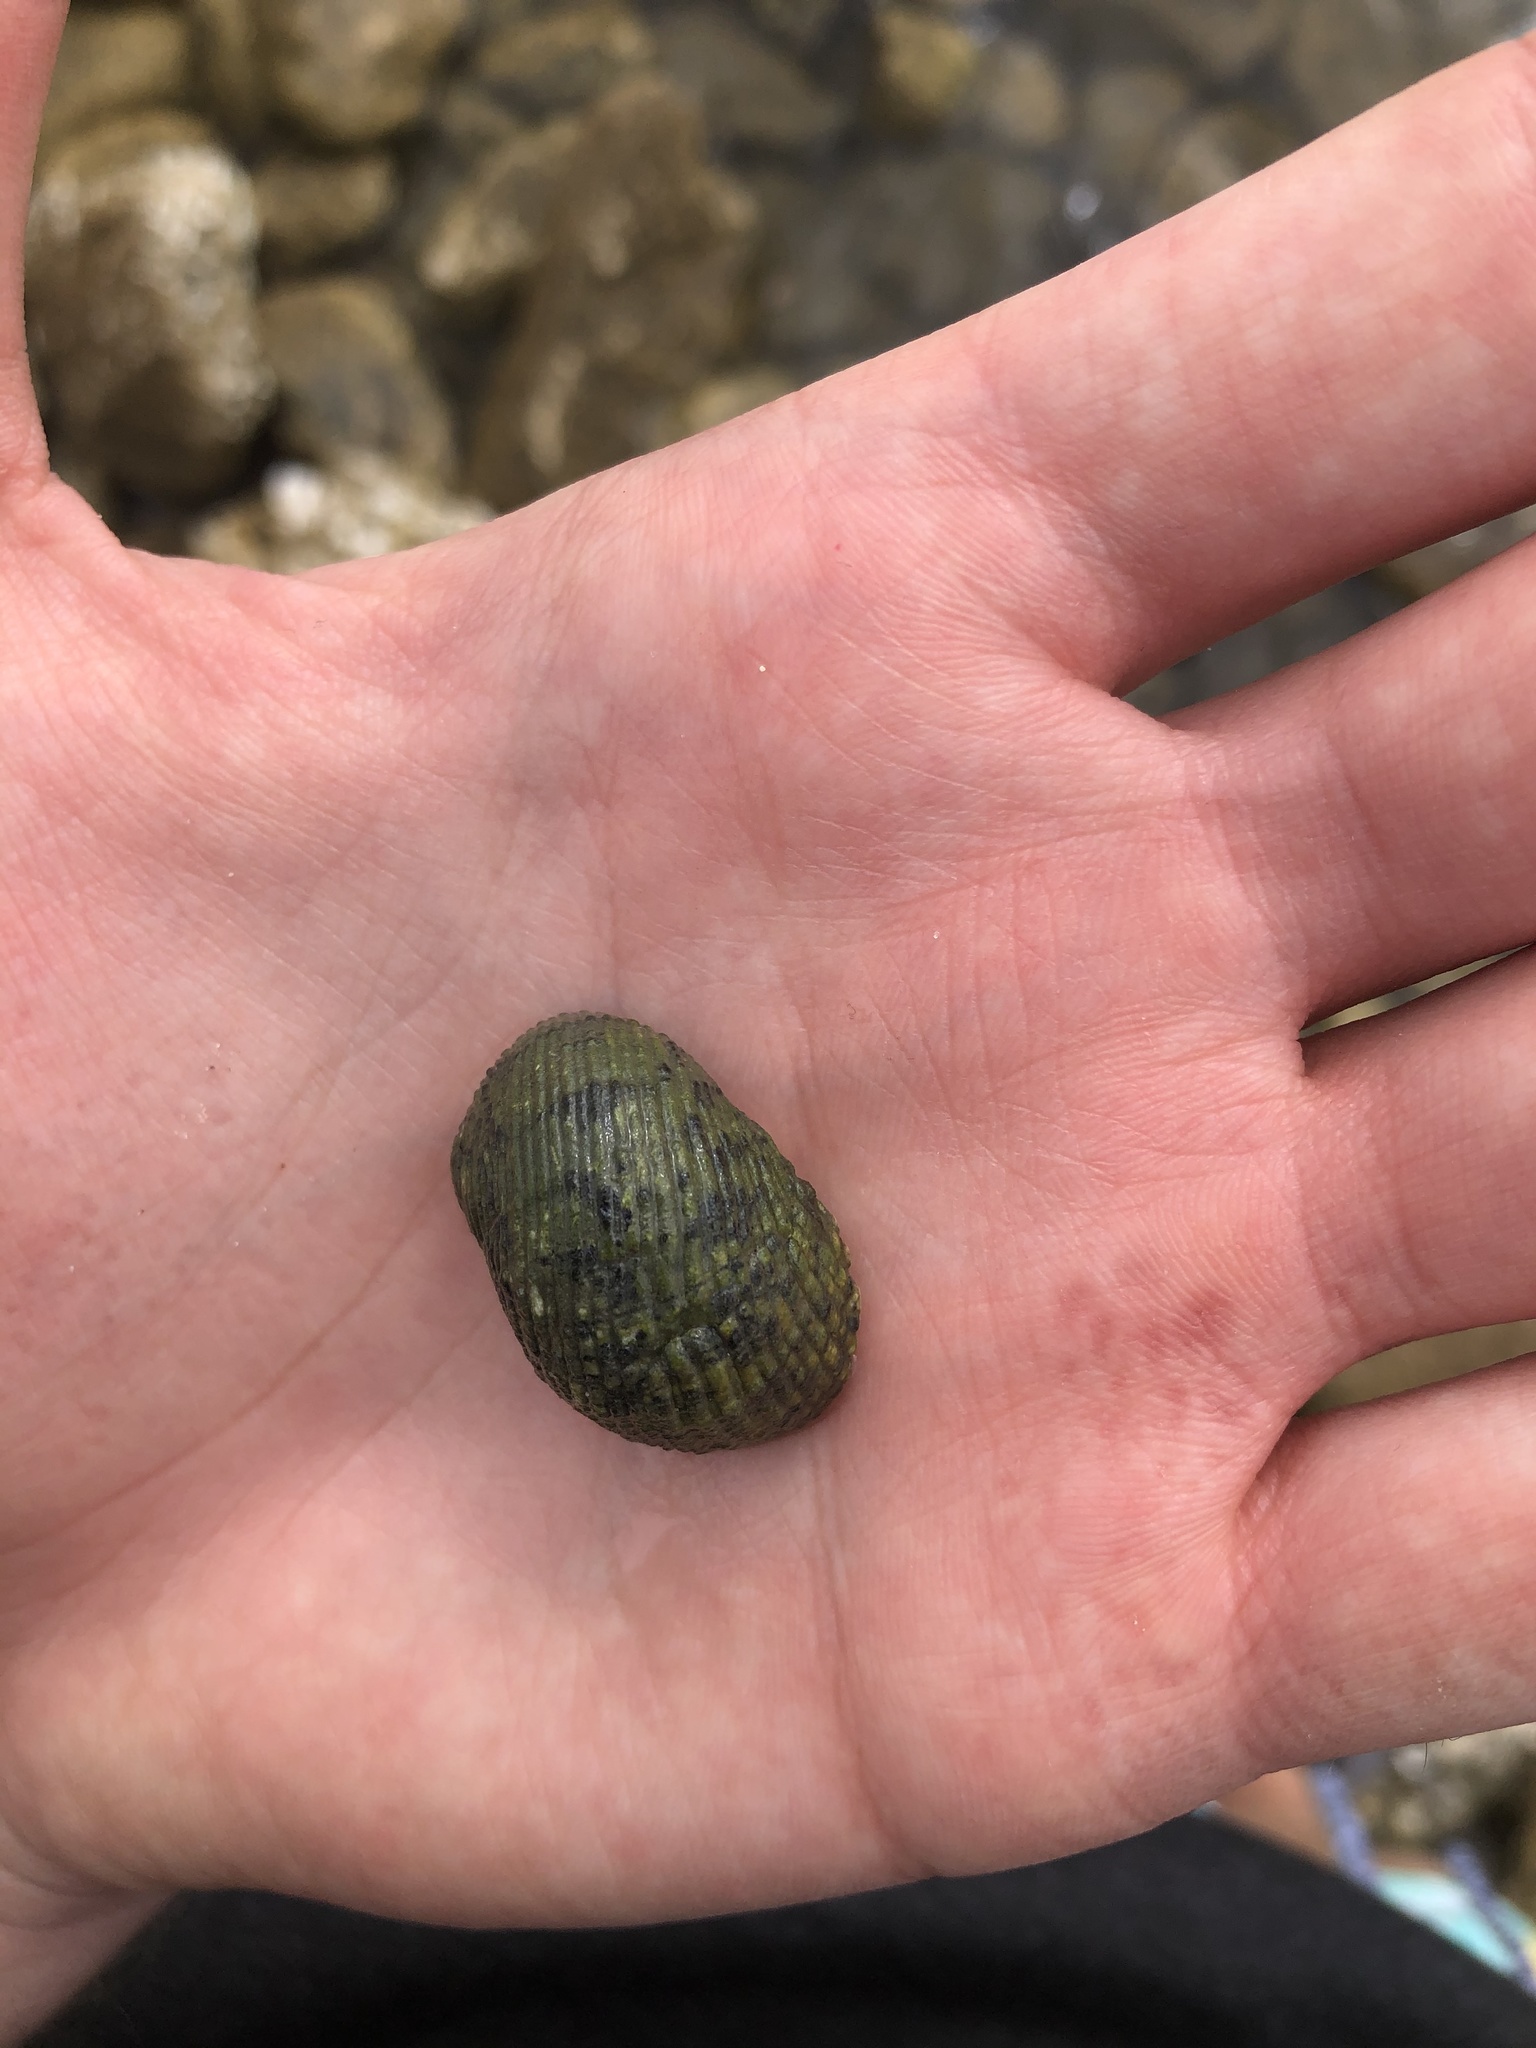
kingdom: Animalia
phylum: Mollusca
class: Gastropoda
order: Cycloneritida
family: Neritidae
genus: Nerita
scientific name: Nerita fulgurans
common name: Antillean nerite
